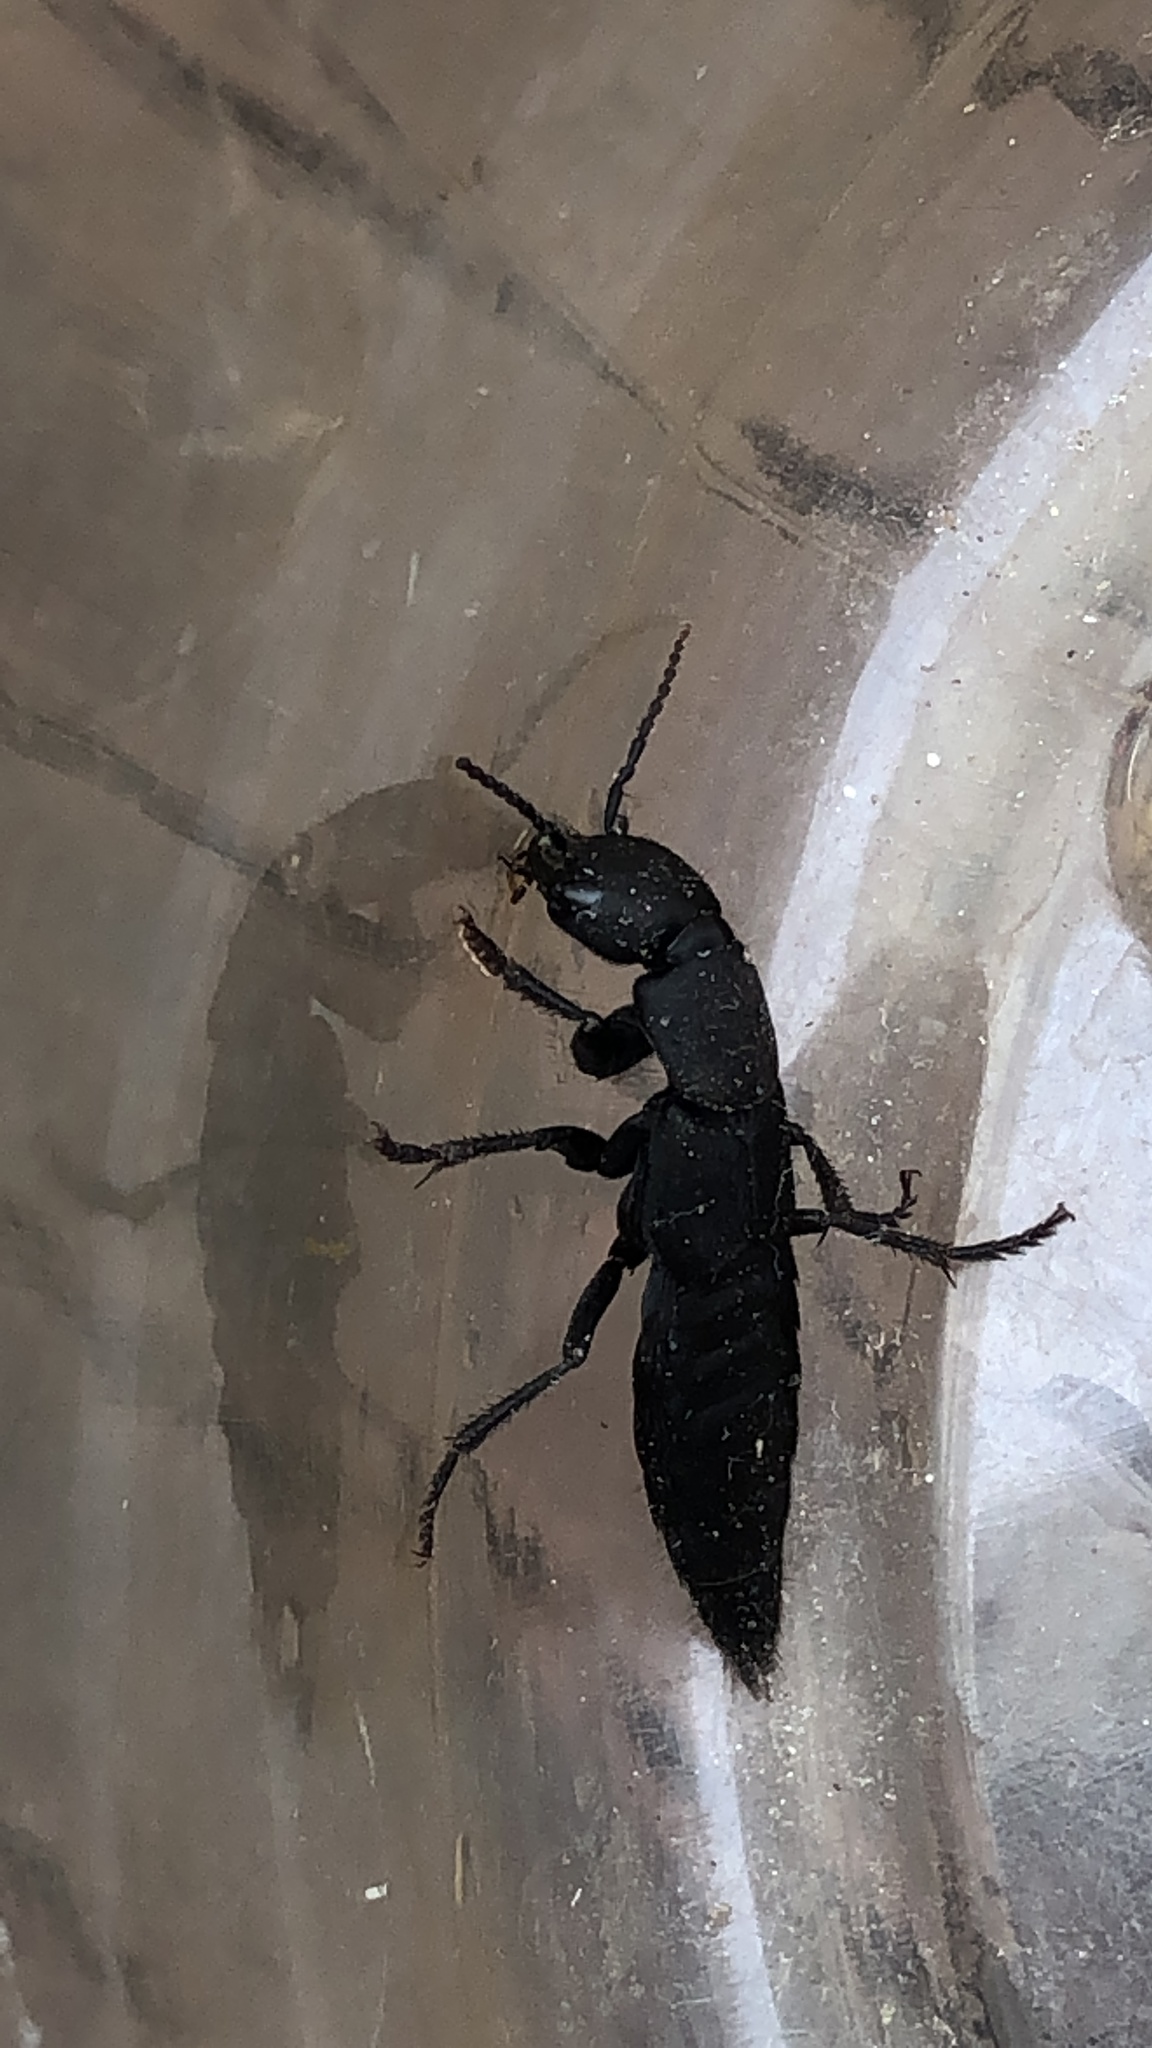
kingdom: Animalia
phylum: Arthropoda
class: Insecta
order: Coleoptera
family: Staphylinidae
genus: Ocypus
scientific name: Ocypus olens
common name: Devil's coach-horse
